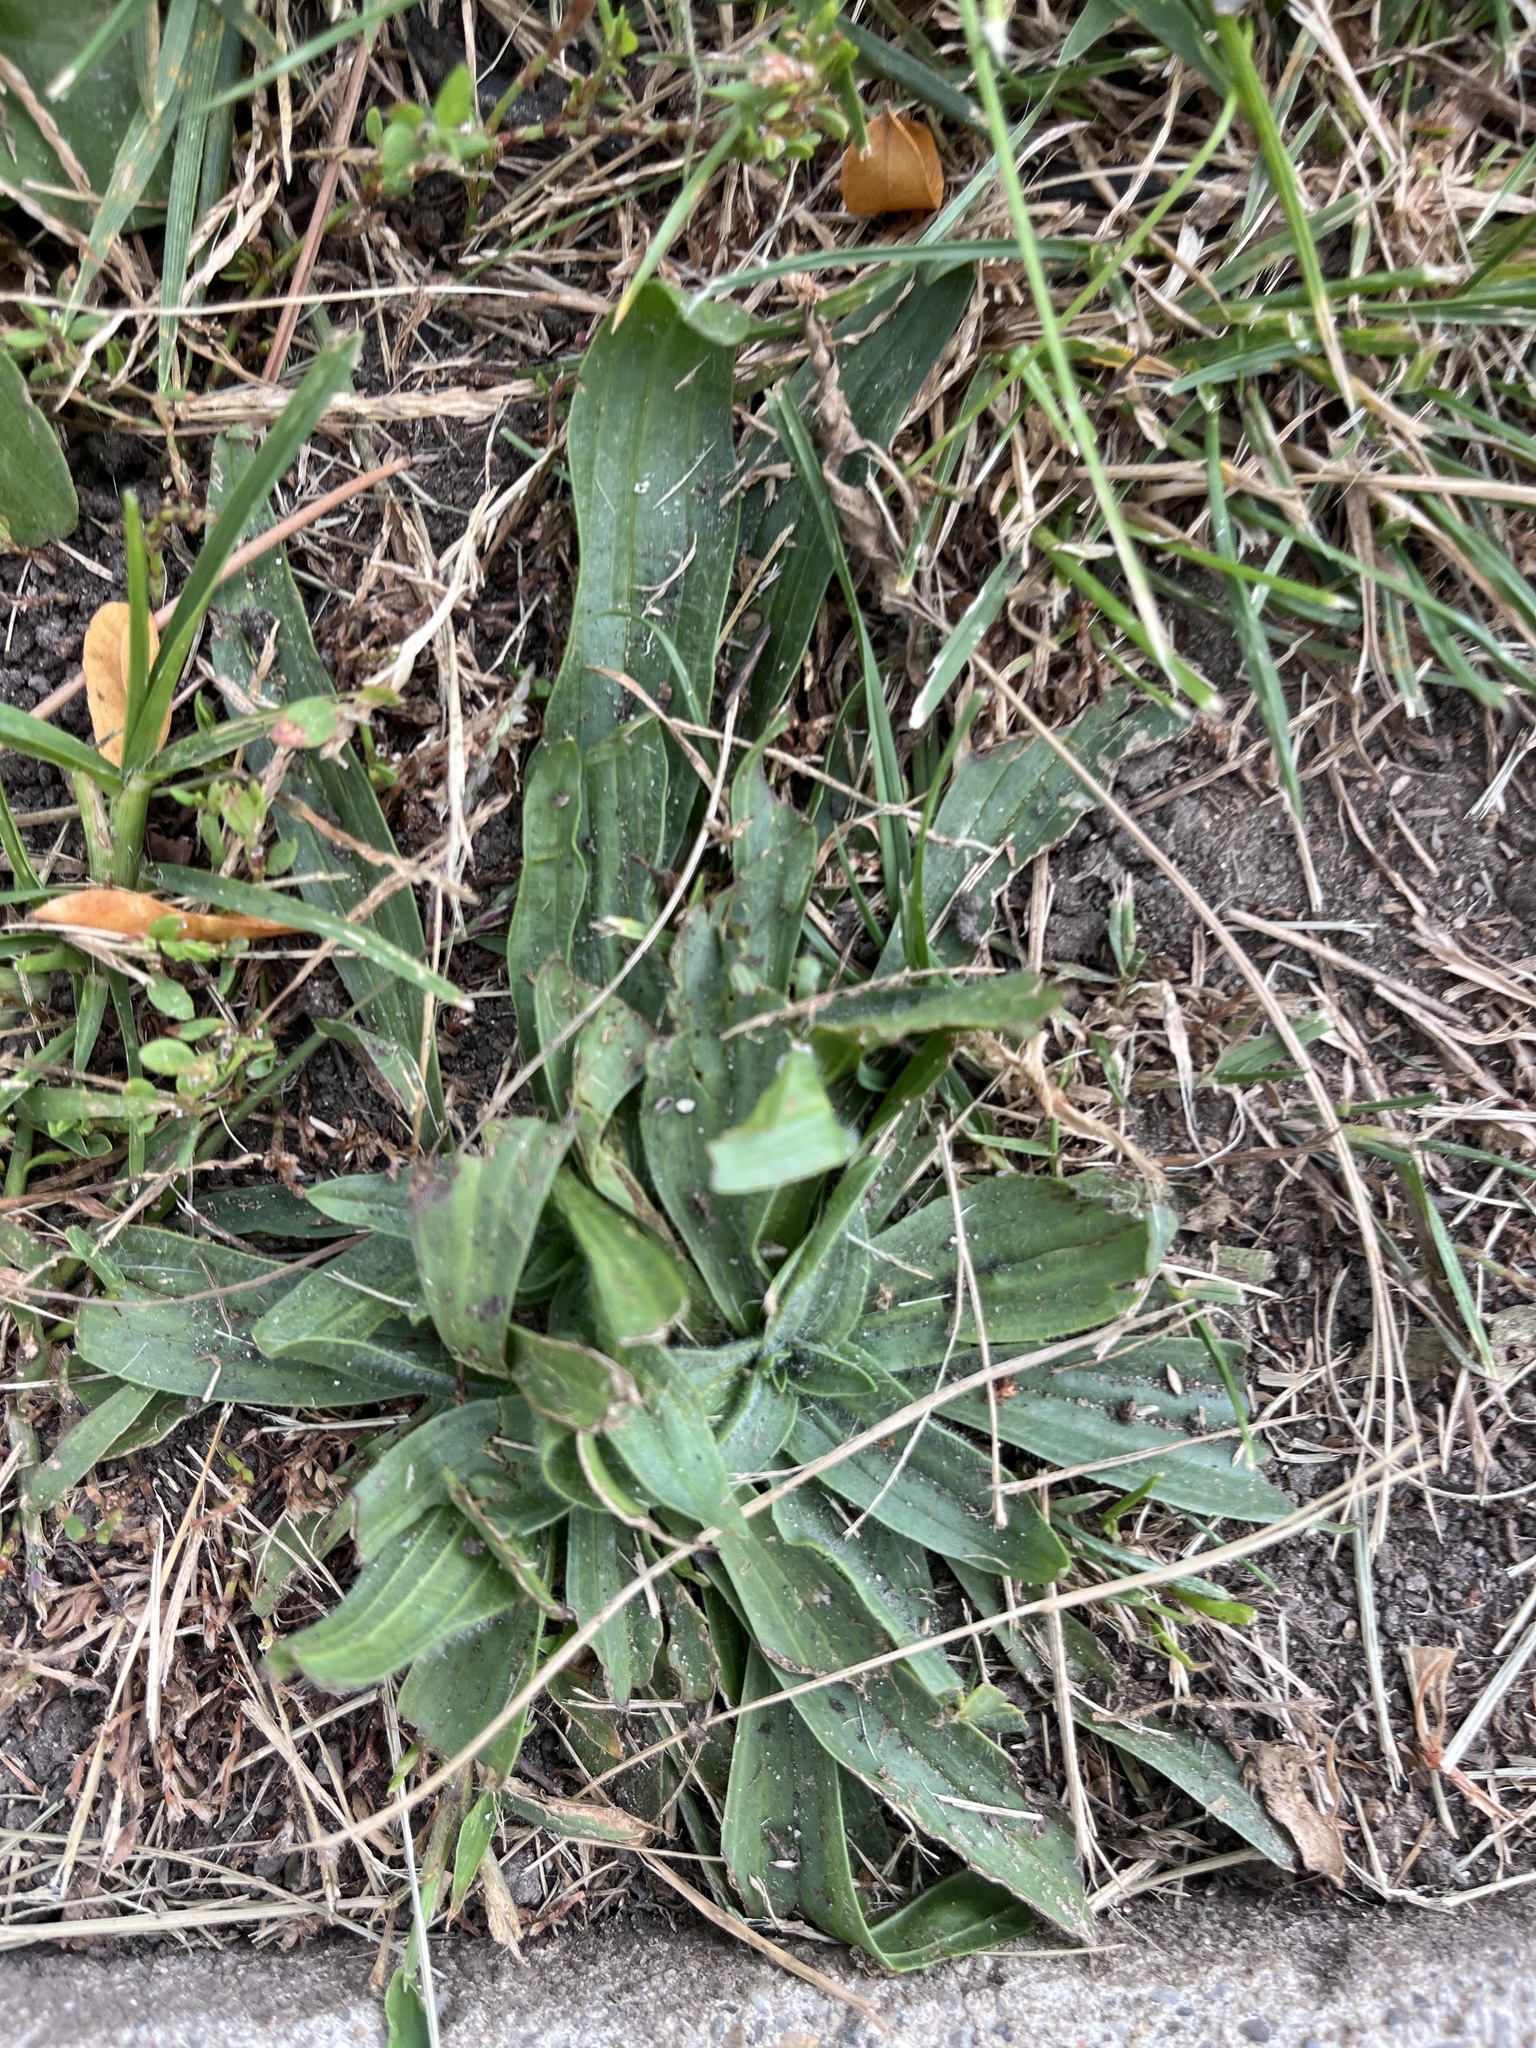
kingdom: Plantae
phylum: Tracheophyta
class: Magnoliopsida
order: Lamiales
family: Plantaginaceae
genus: Plantago
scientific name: Plantago lanceolata
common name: Ribwort plantain
